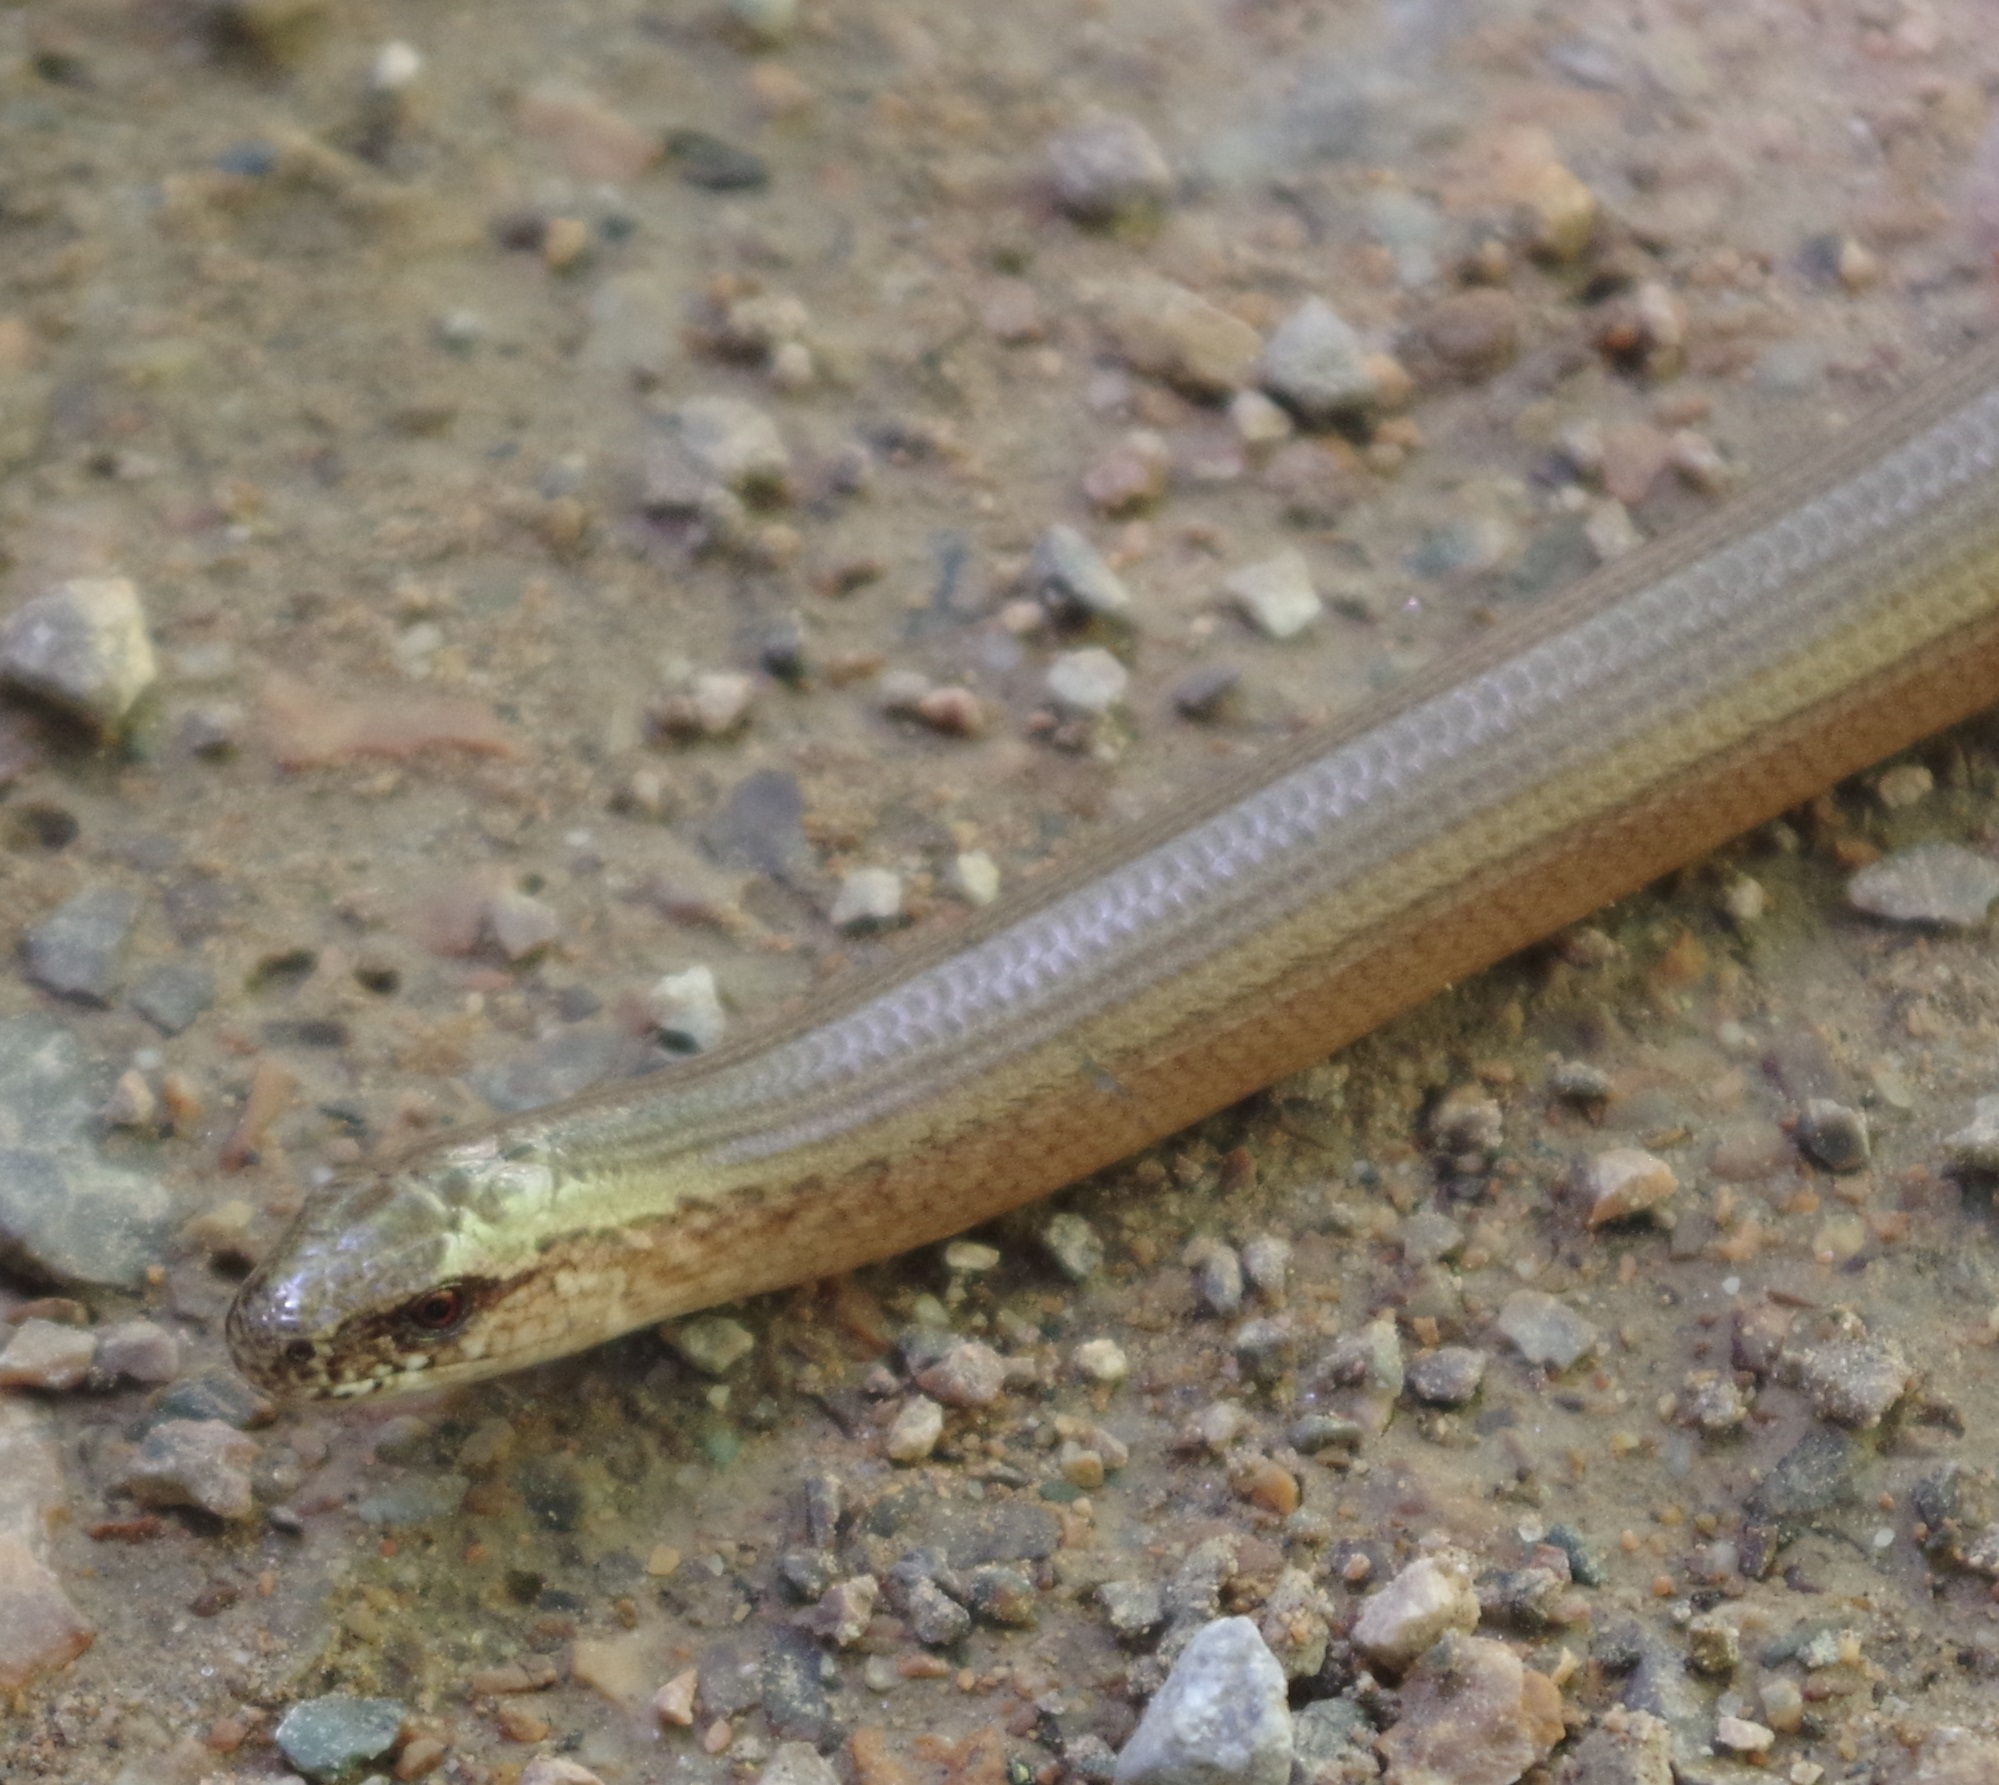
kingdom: Animalia
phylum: Chordata
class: Squamata
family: Anguidae
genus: Anguis
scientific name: Anguis fragilis
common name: Slow worm
